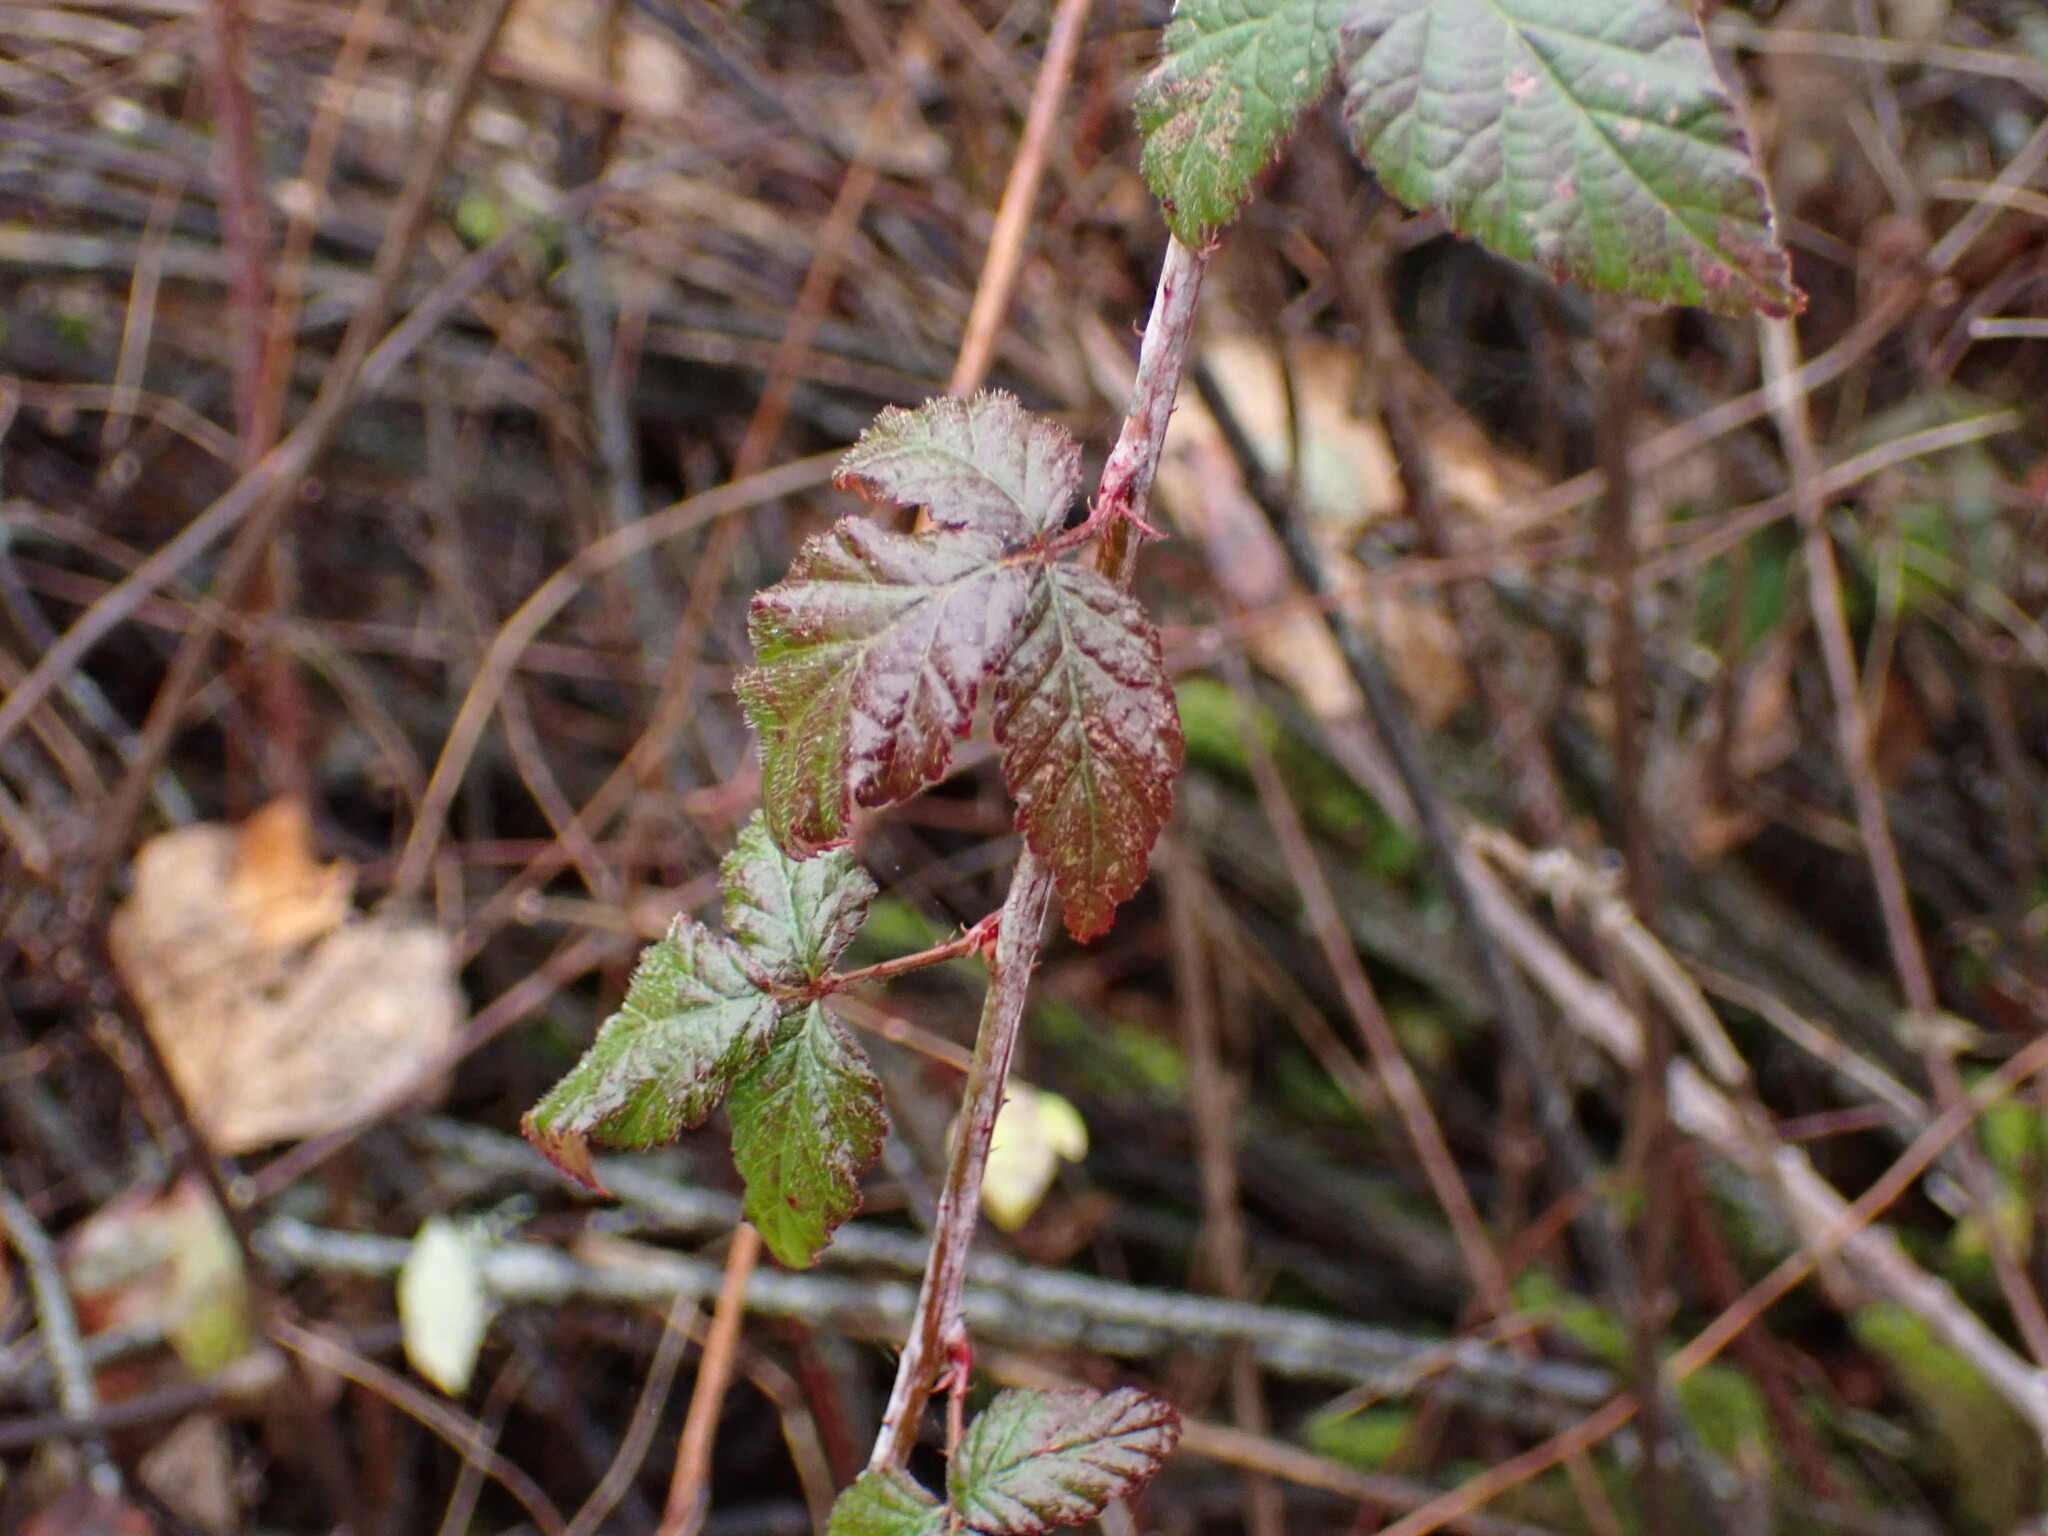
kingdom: Plantae
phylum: Tracheophyta
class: Magnoliopsida
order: Rosales
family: Rosaceae
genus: Rubus
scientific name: Rubus ursinus
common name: Pacific blackberry
